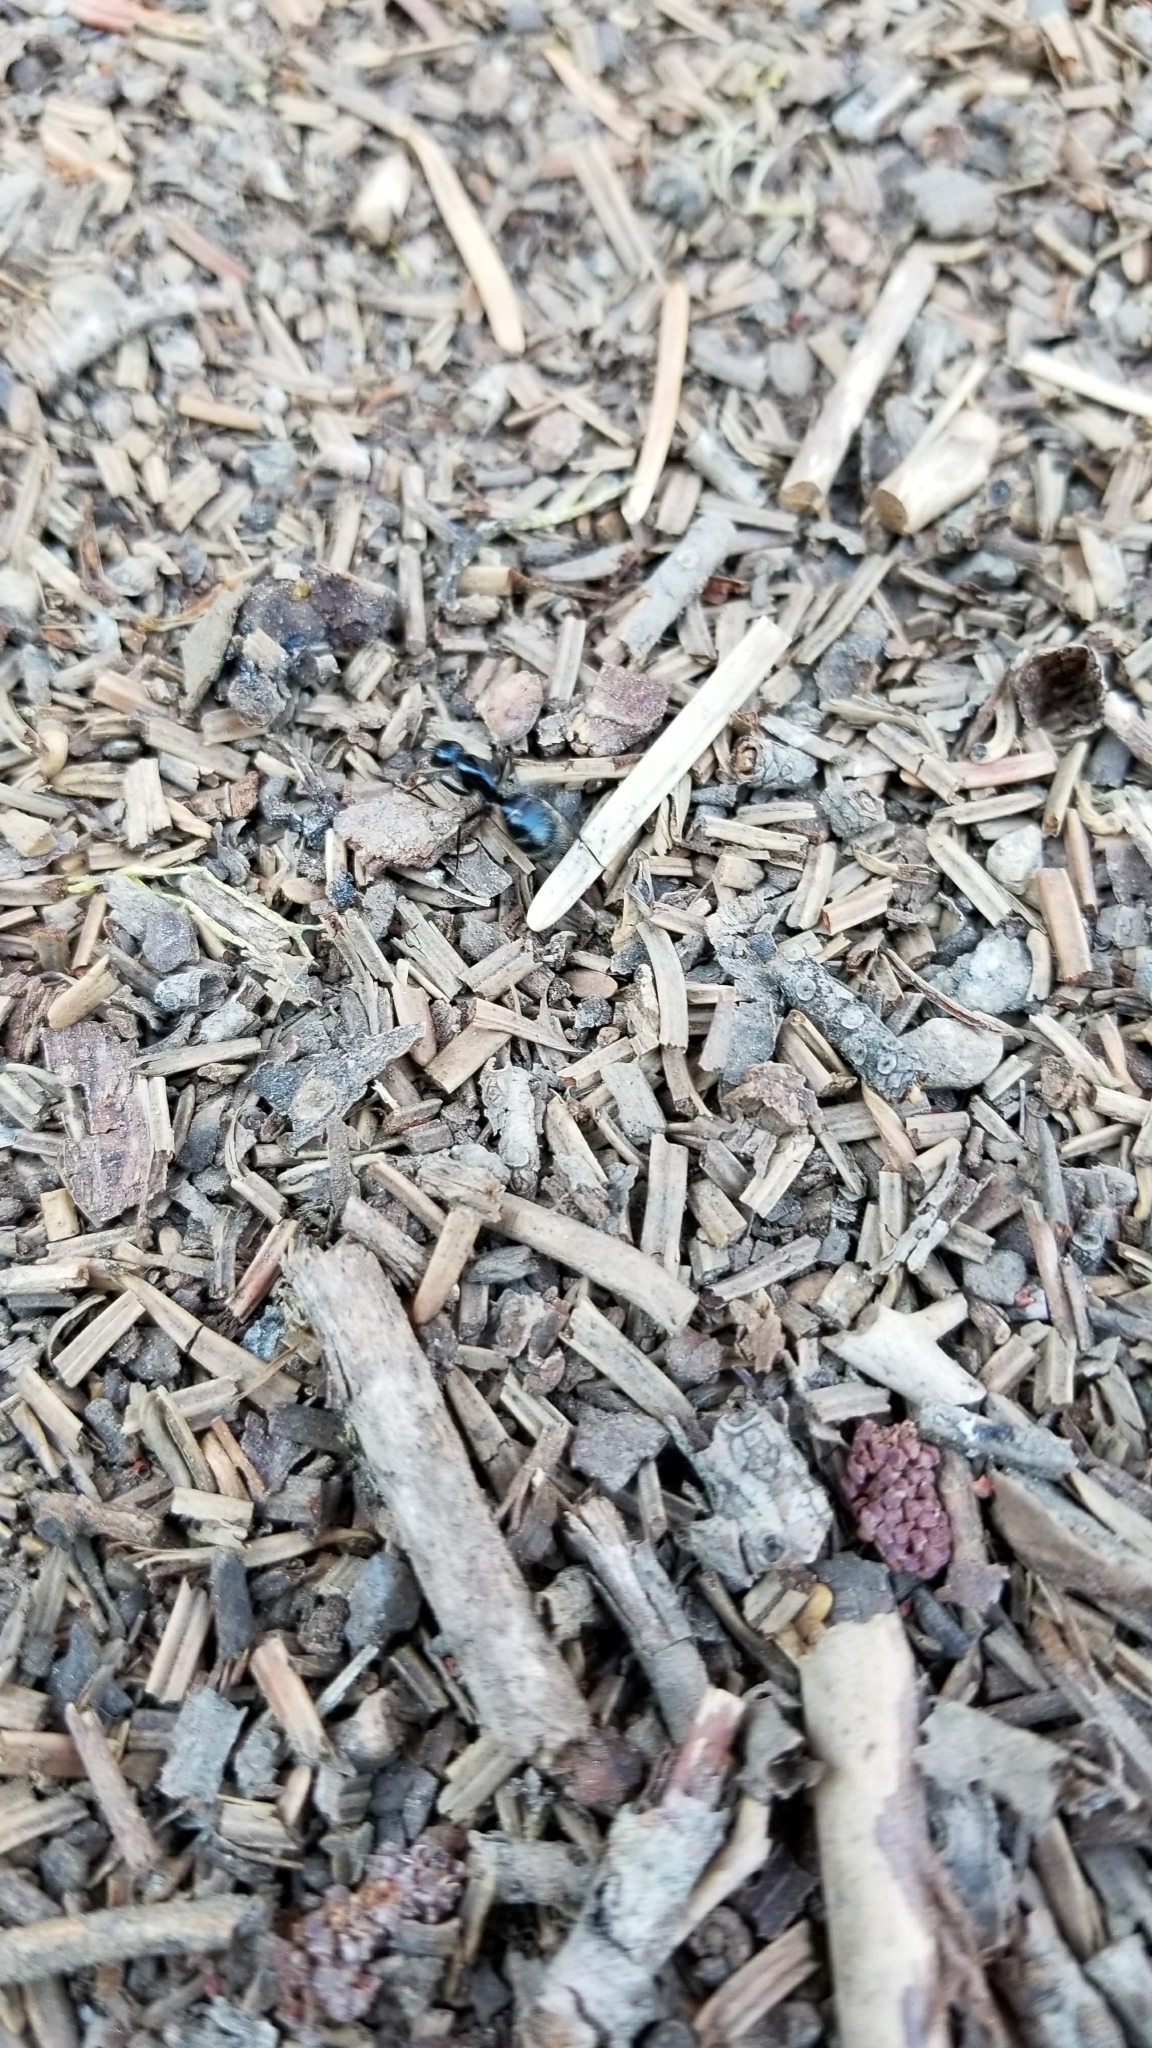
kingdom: Animalia
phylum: Arthropoda
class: Insecta
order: Hymenoptera
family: Formicidae
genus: Camponotus
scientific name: Camponotus
